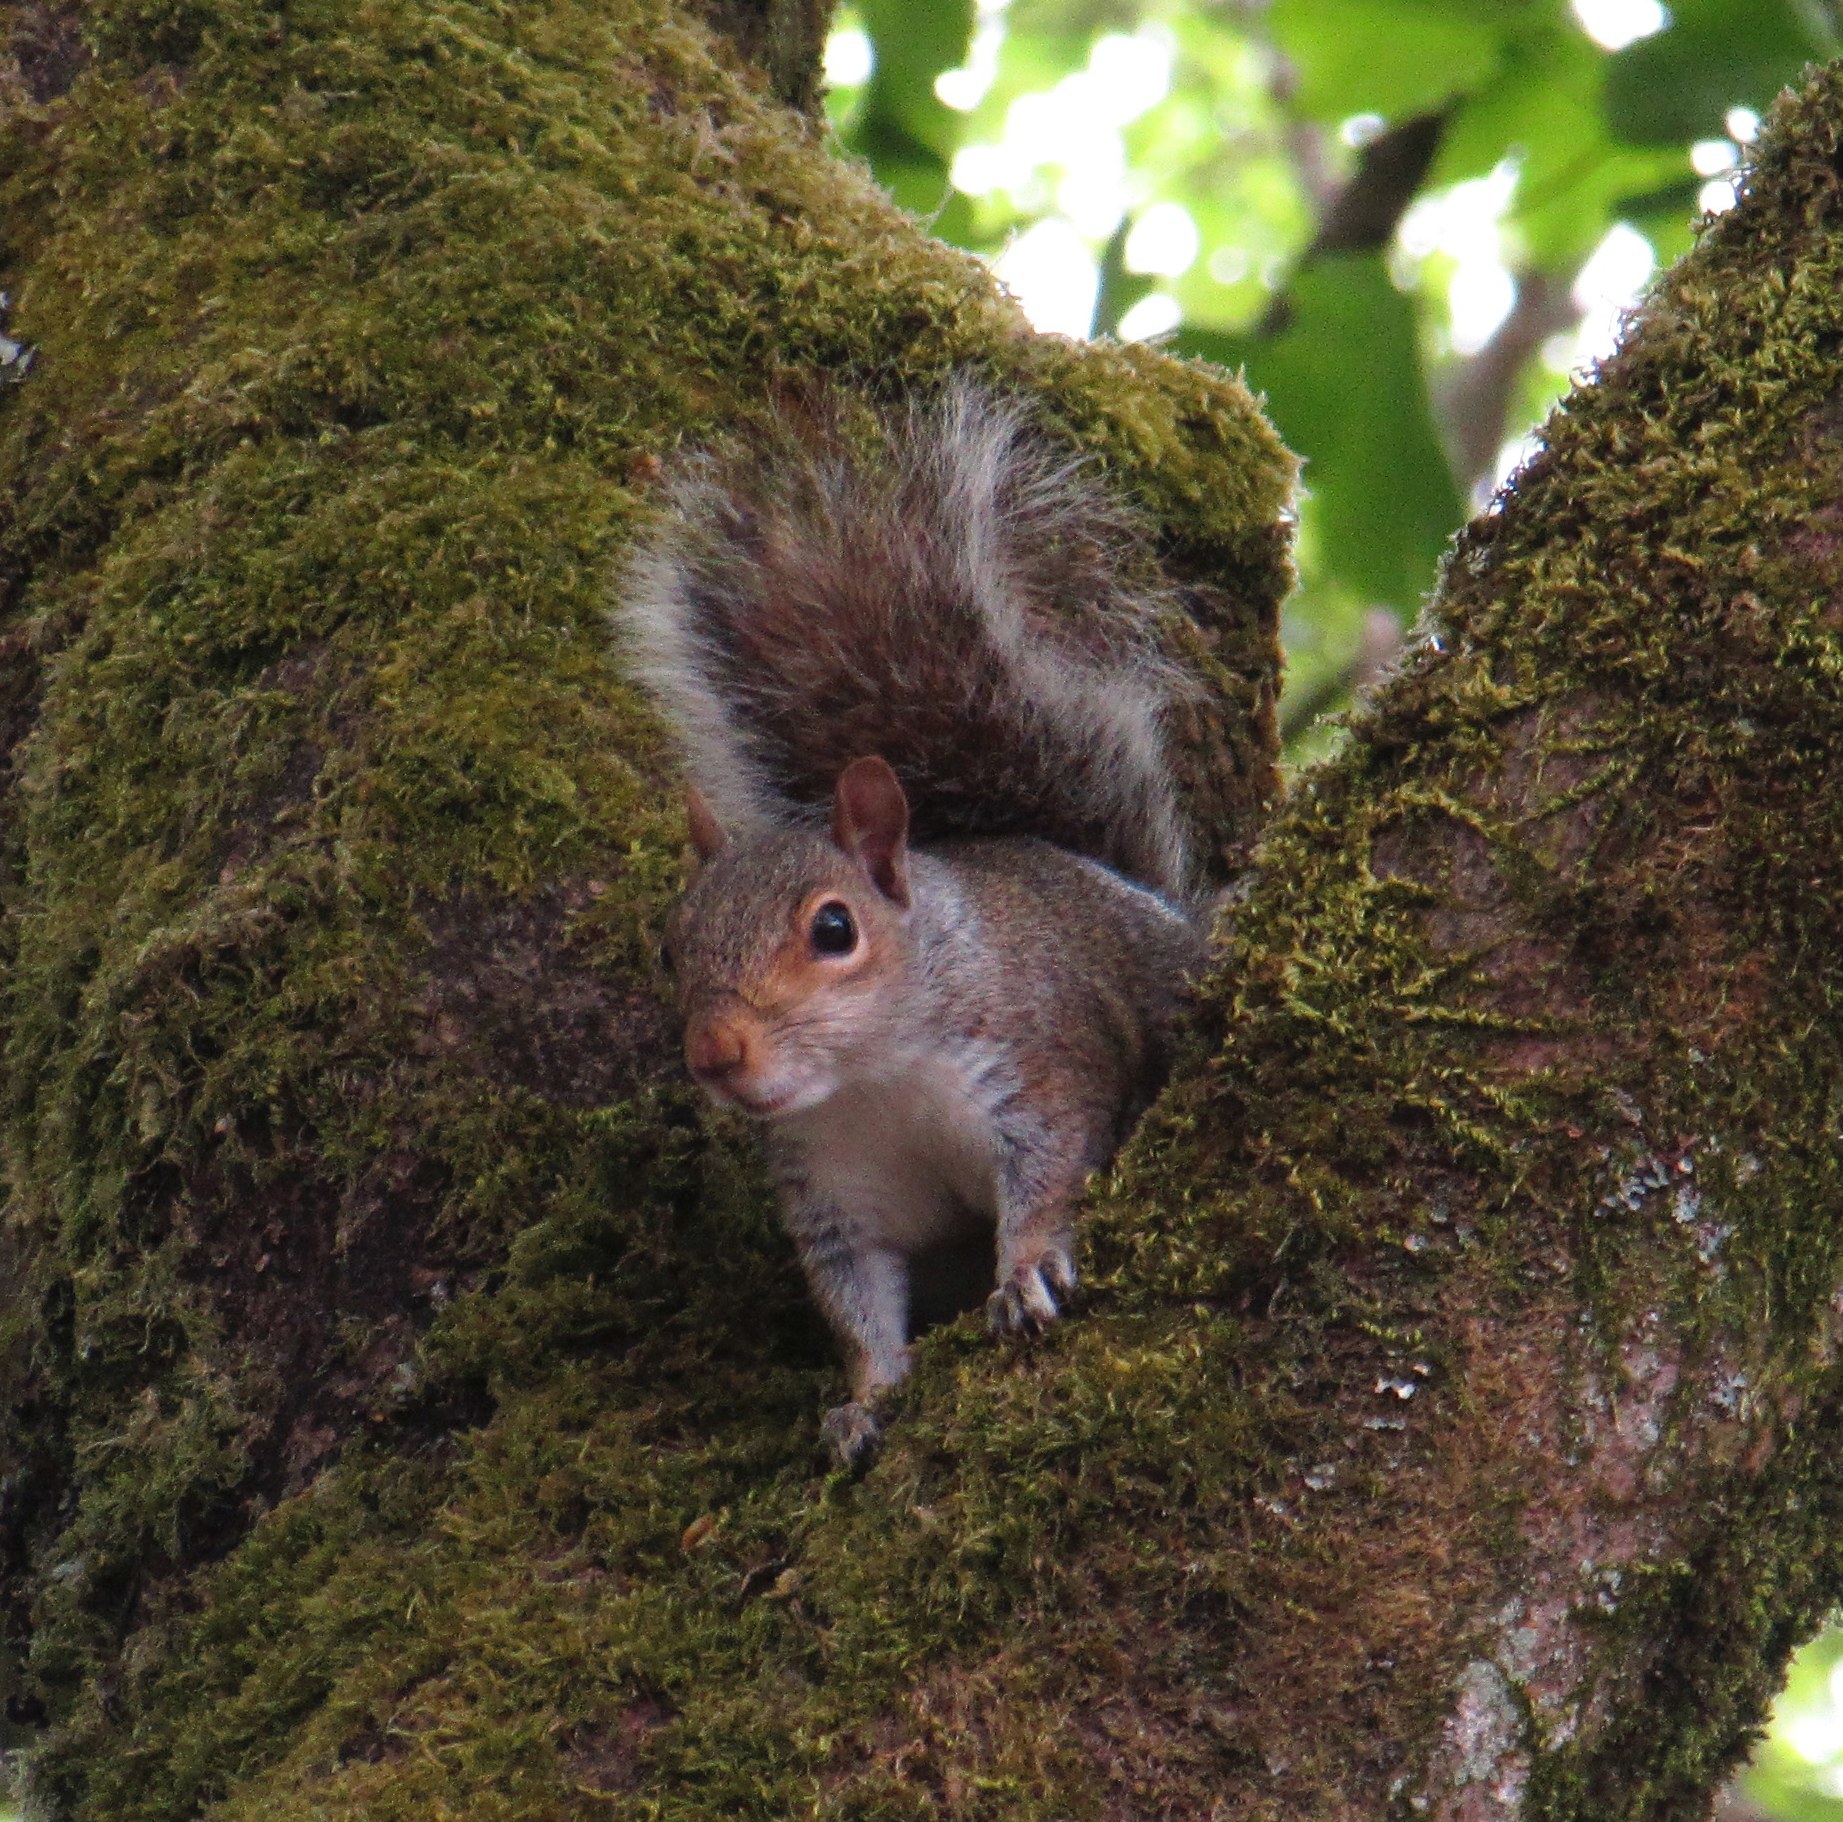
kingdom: Animalia
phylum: Chordata
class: Mammalia
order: Rodentia
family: Sciuridae
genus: Sciurus
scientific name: Sciurus carolinensis
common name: Eastern gray squirrel
